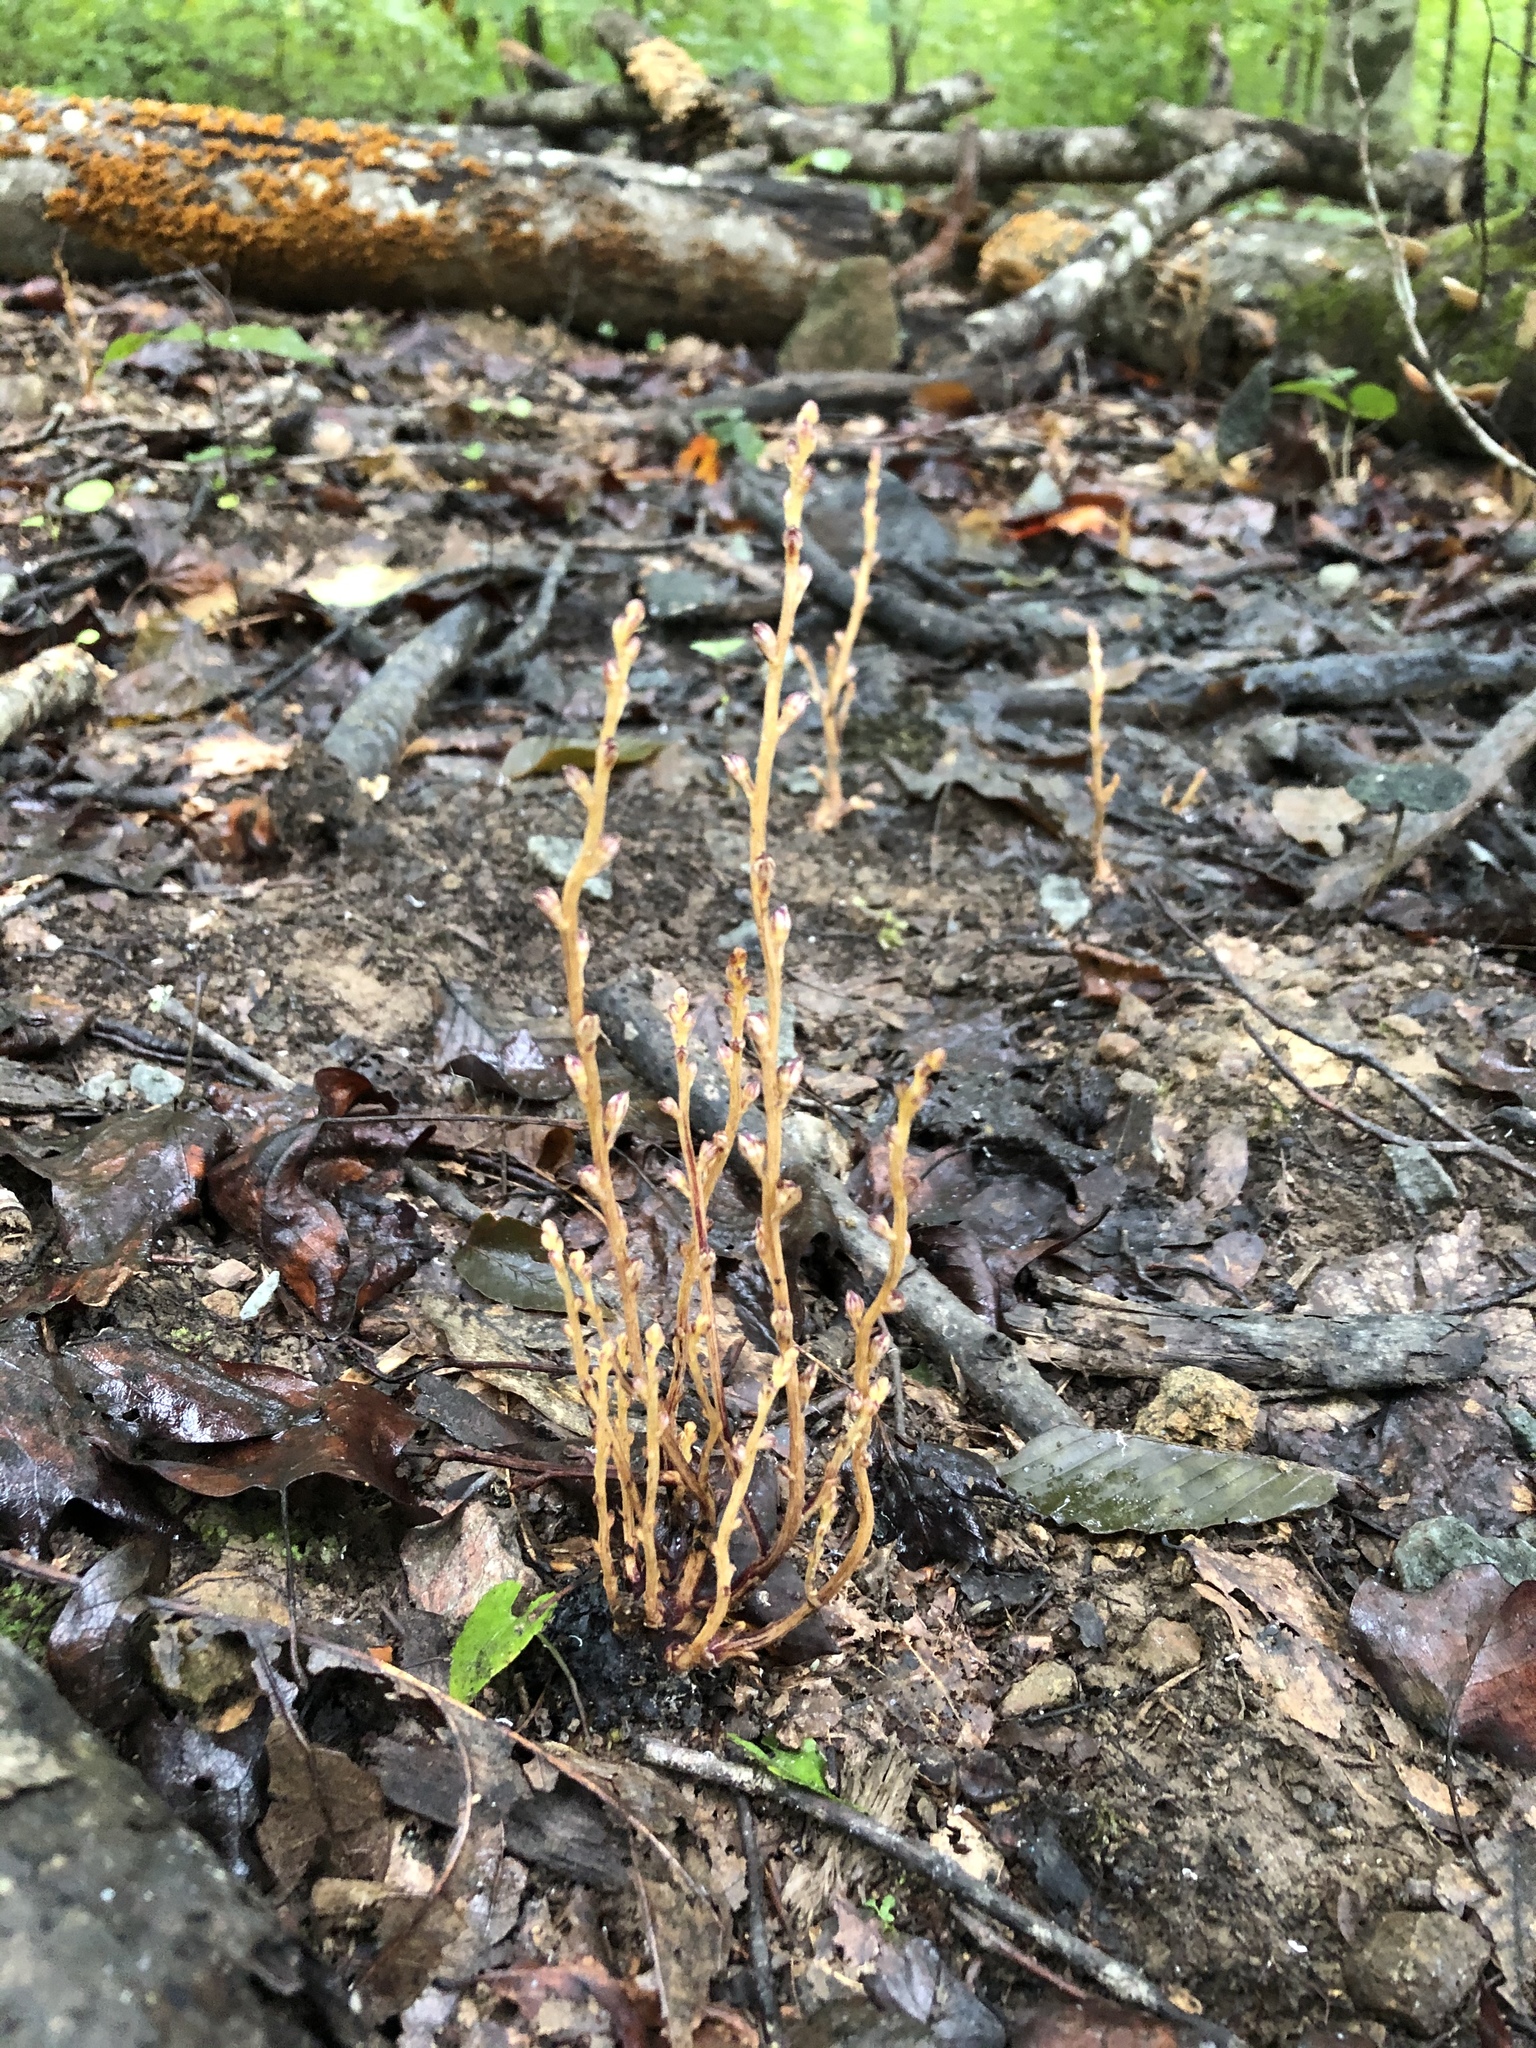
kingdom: Plantae
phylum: Tracheophyta
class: Magnoliopsida
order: Lamiales
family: Orobanchaceae
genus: Epifagus
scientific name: Epifagus virginiana
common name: Beechdrops
